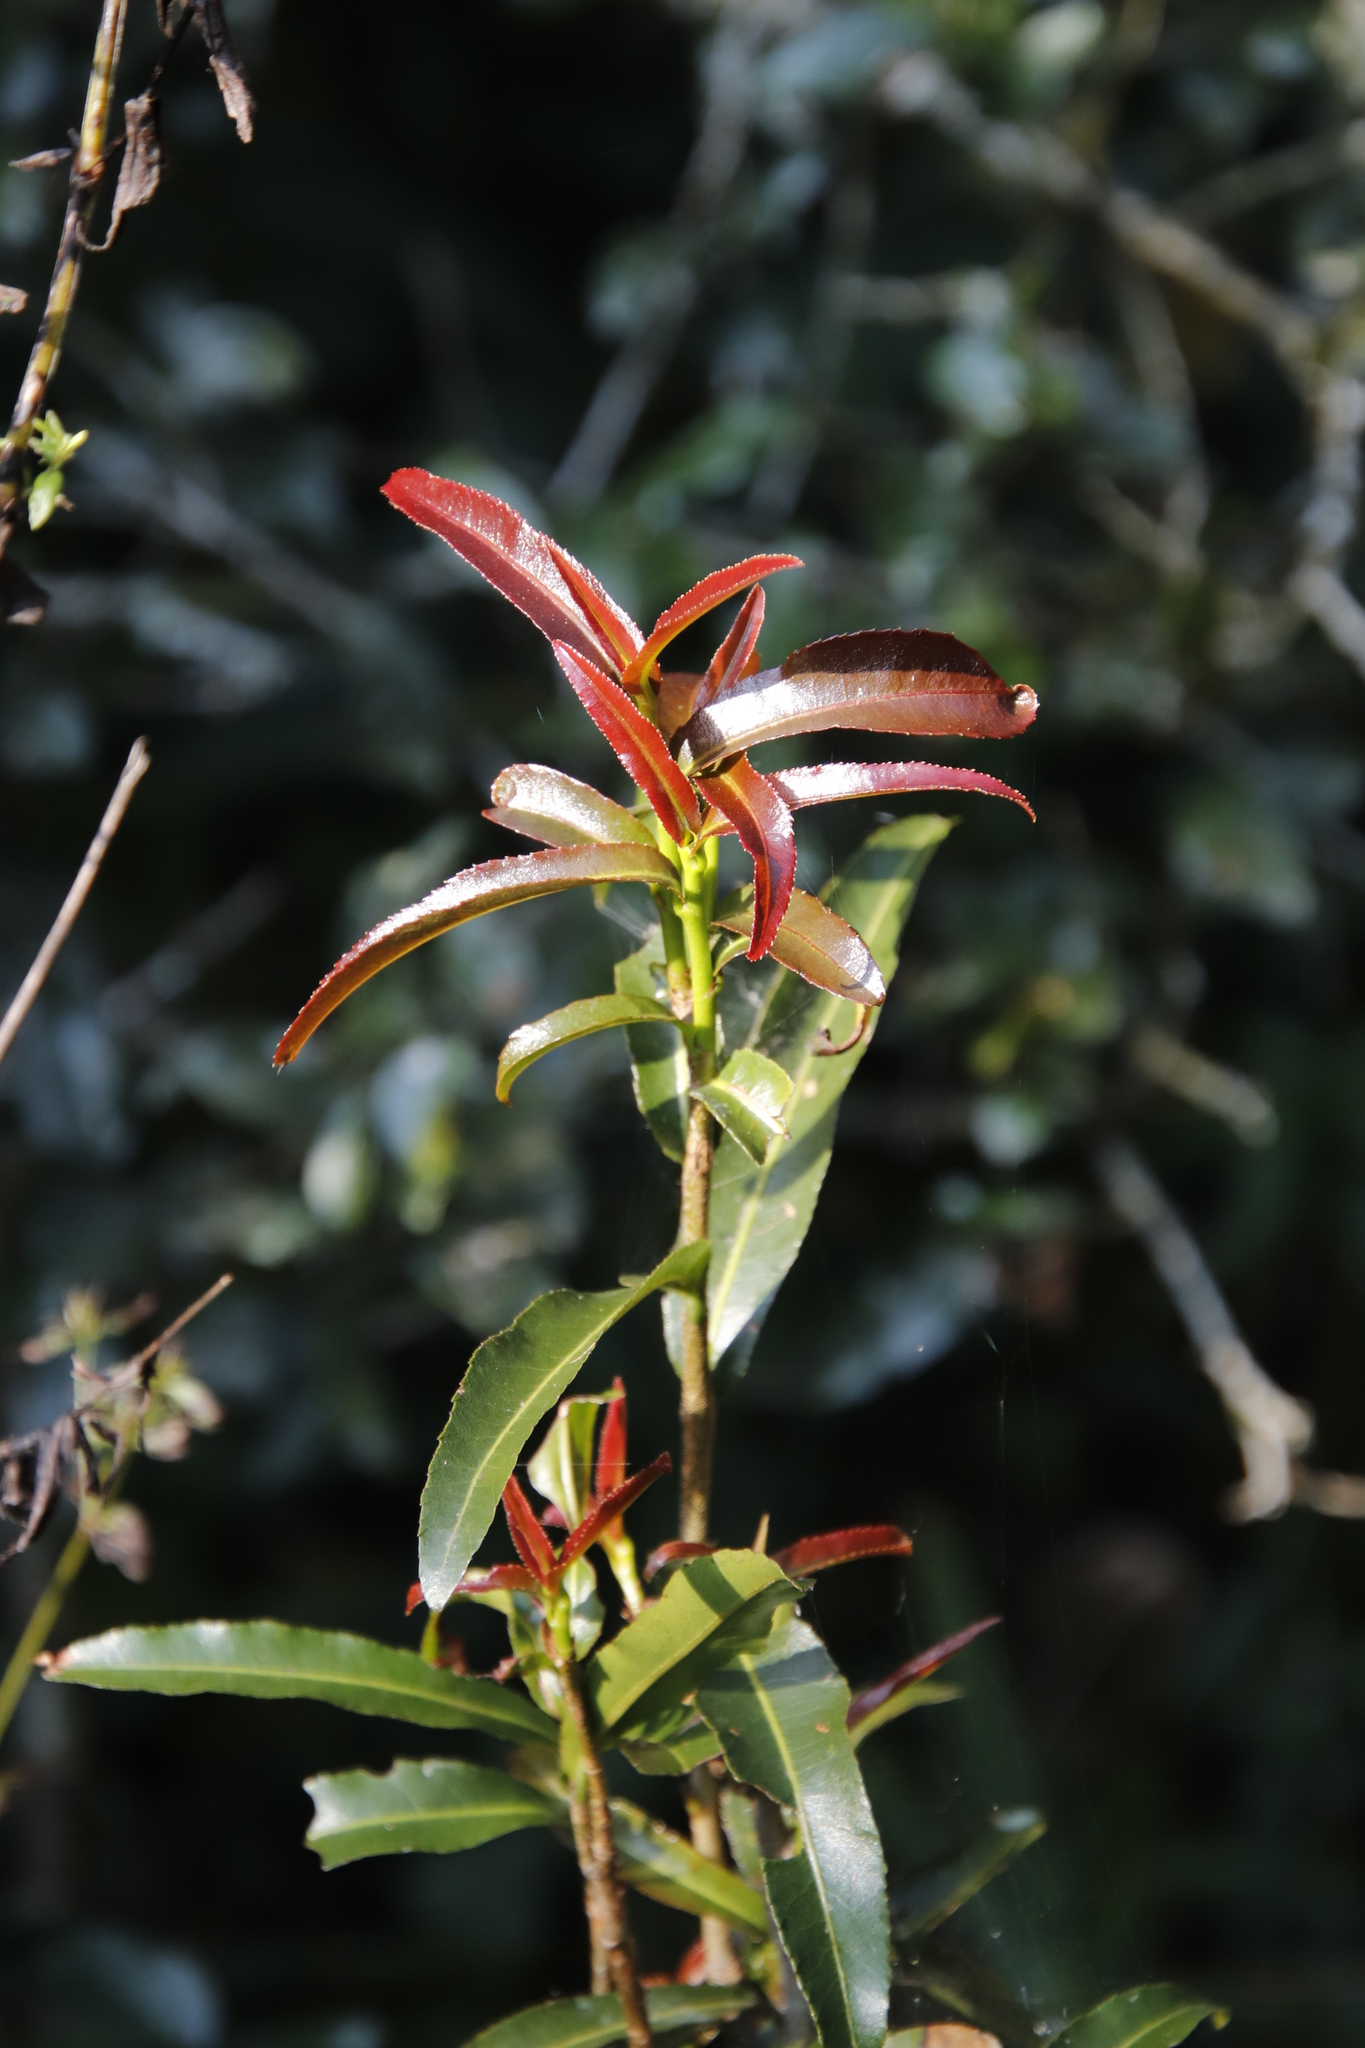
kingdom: Plantae
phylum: Tracheophyta
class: Magnoliopsida
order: Malpighiales
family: Ochnaceae
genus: Ochna
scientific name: Ochna natalitia
